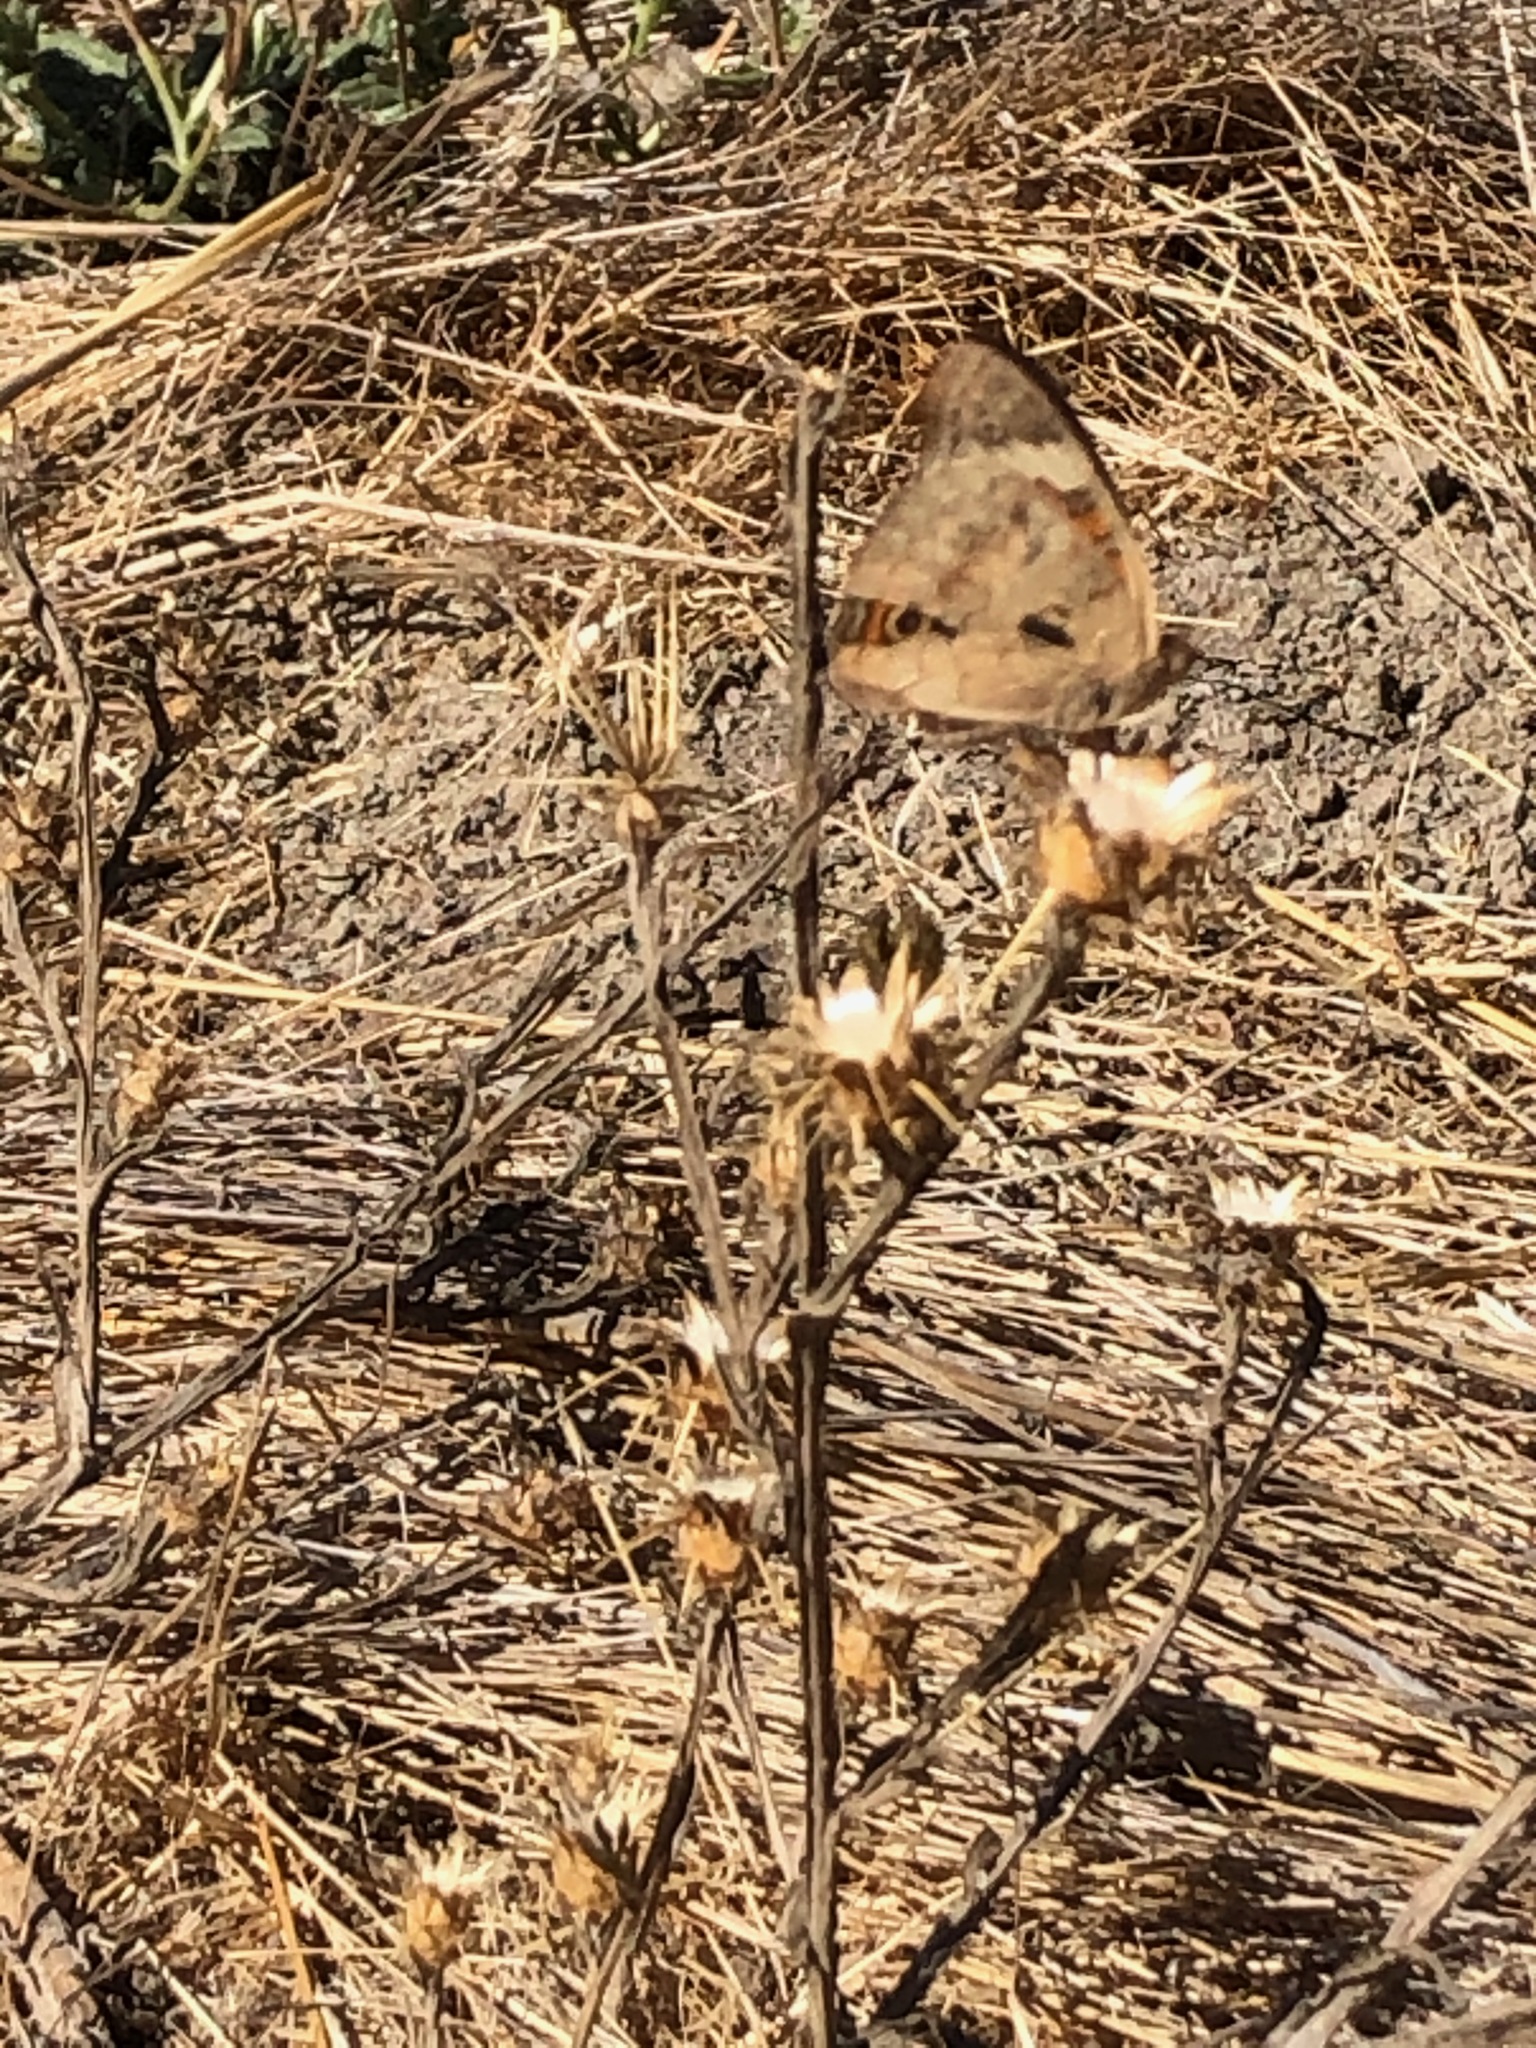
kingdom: Animalia
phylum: Arthropoda
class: Insecta
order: Lepidoptera
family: Nymphalidae
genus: Junonia
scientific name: Junonia grisea
